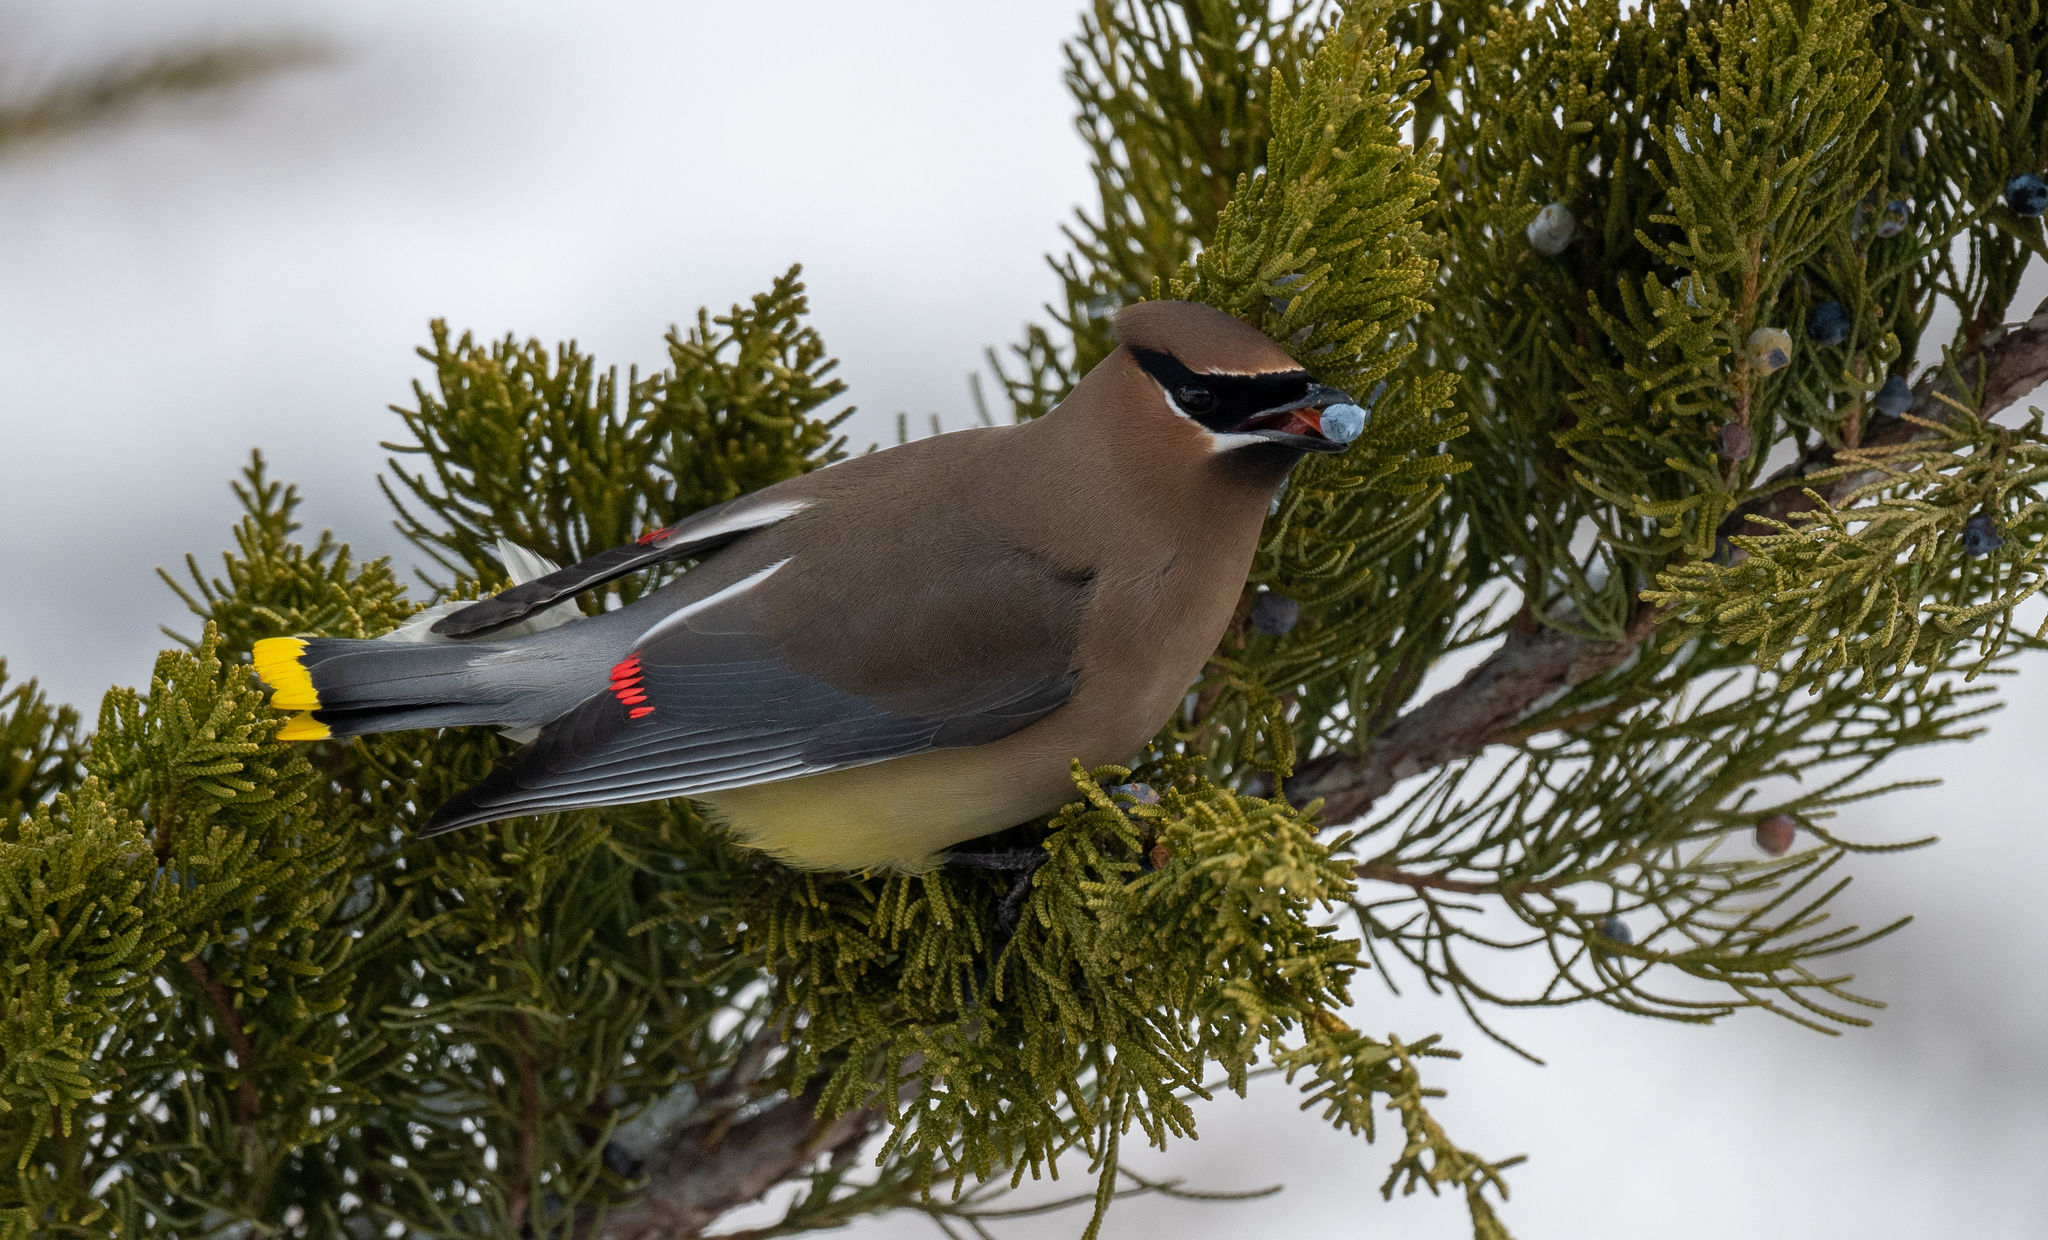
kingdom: Animalia
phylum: Chordata
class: Aves
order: Passeriformes
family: Bombycillidae
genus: Bombycilla
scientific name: Bombycilla cedrorum
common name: Cedar waxwing
